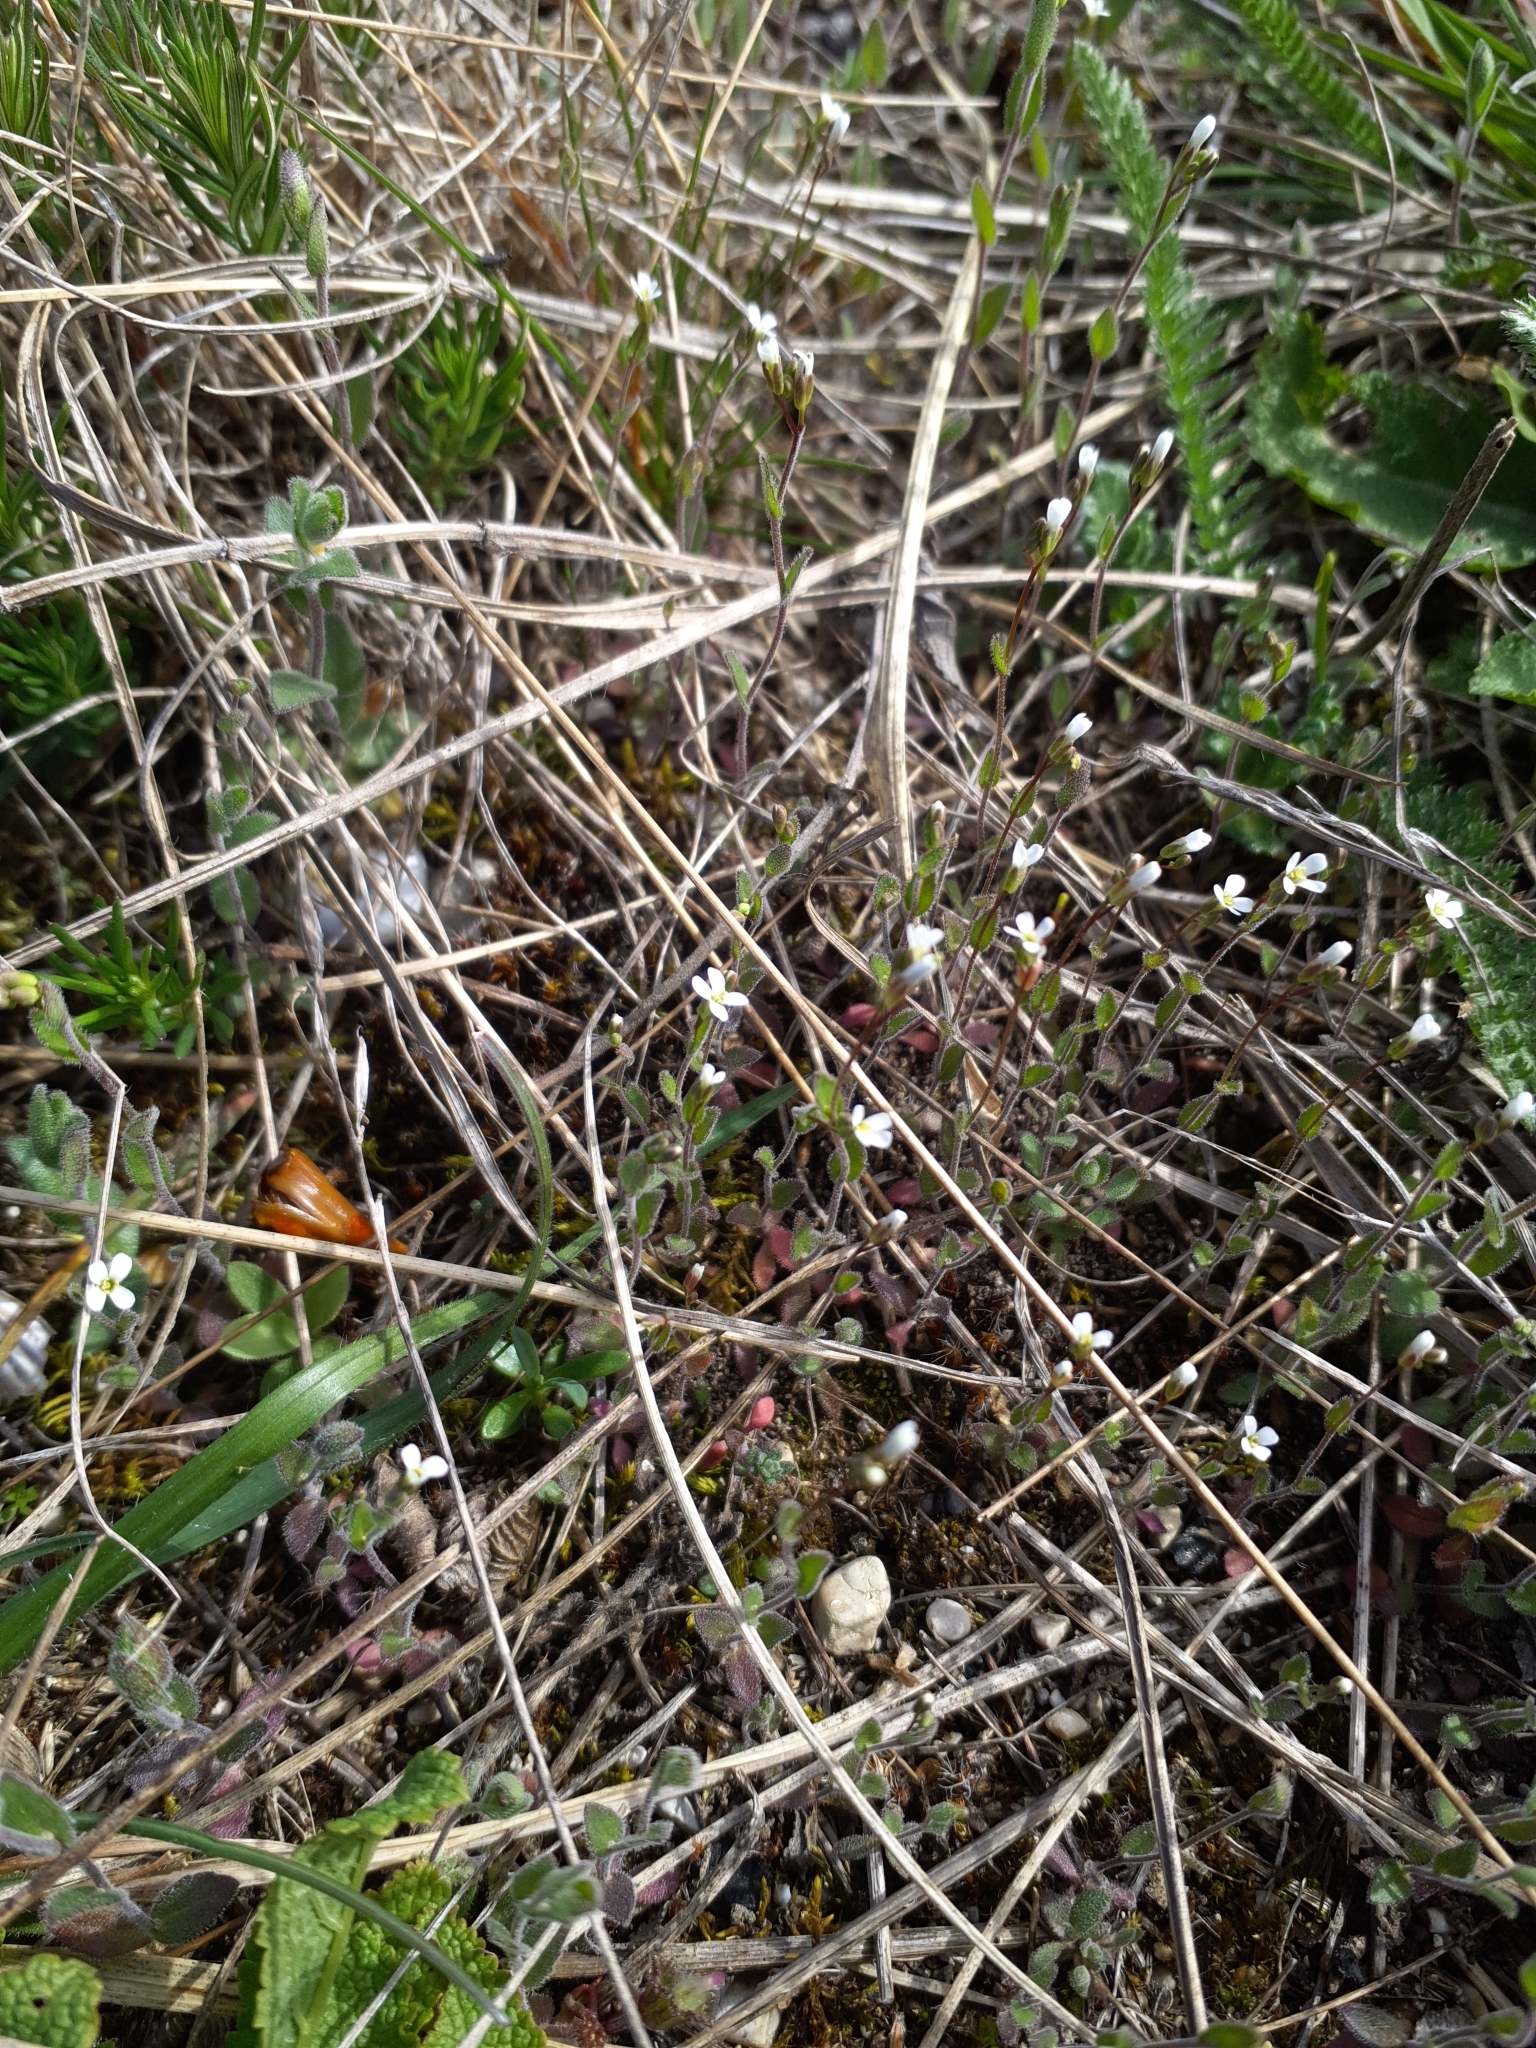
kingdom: Plantae
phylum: Tracheophyta
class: Magnoliopsida
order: Brassicales
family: Brassicaceae
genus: Arabis
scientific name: Arabis auriculata
